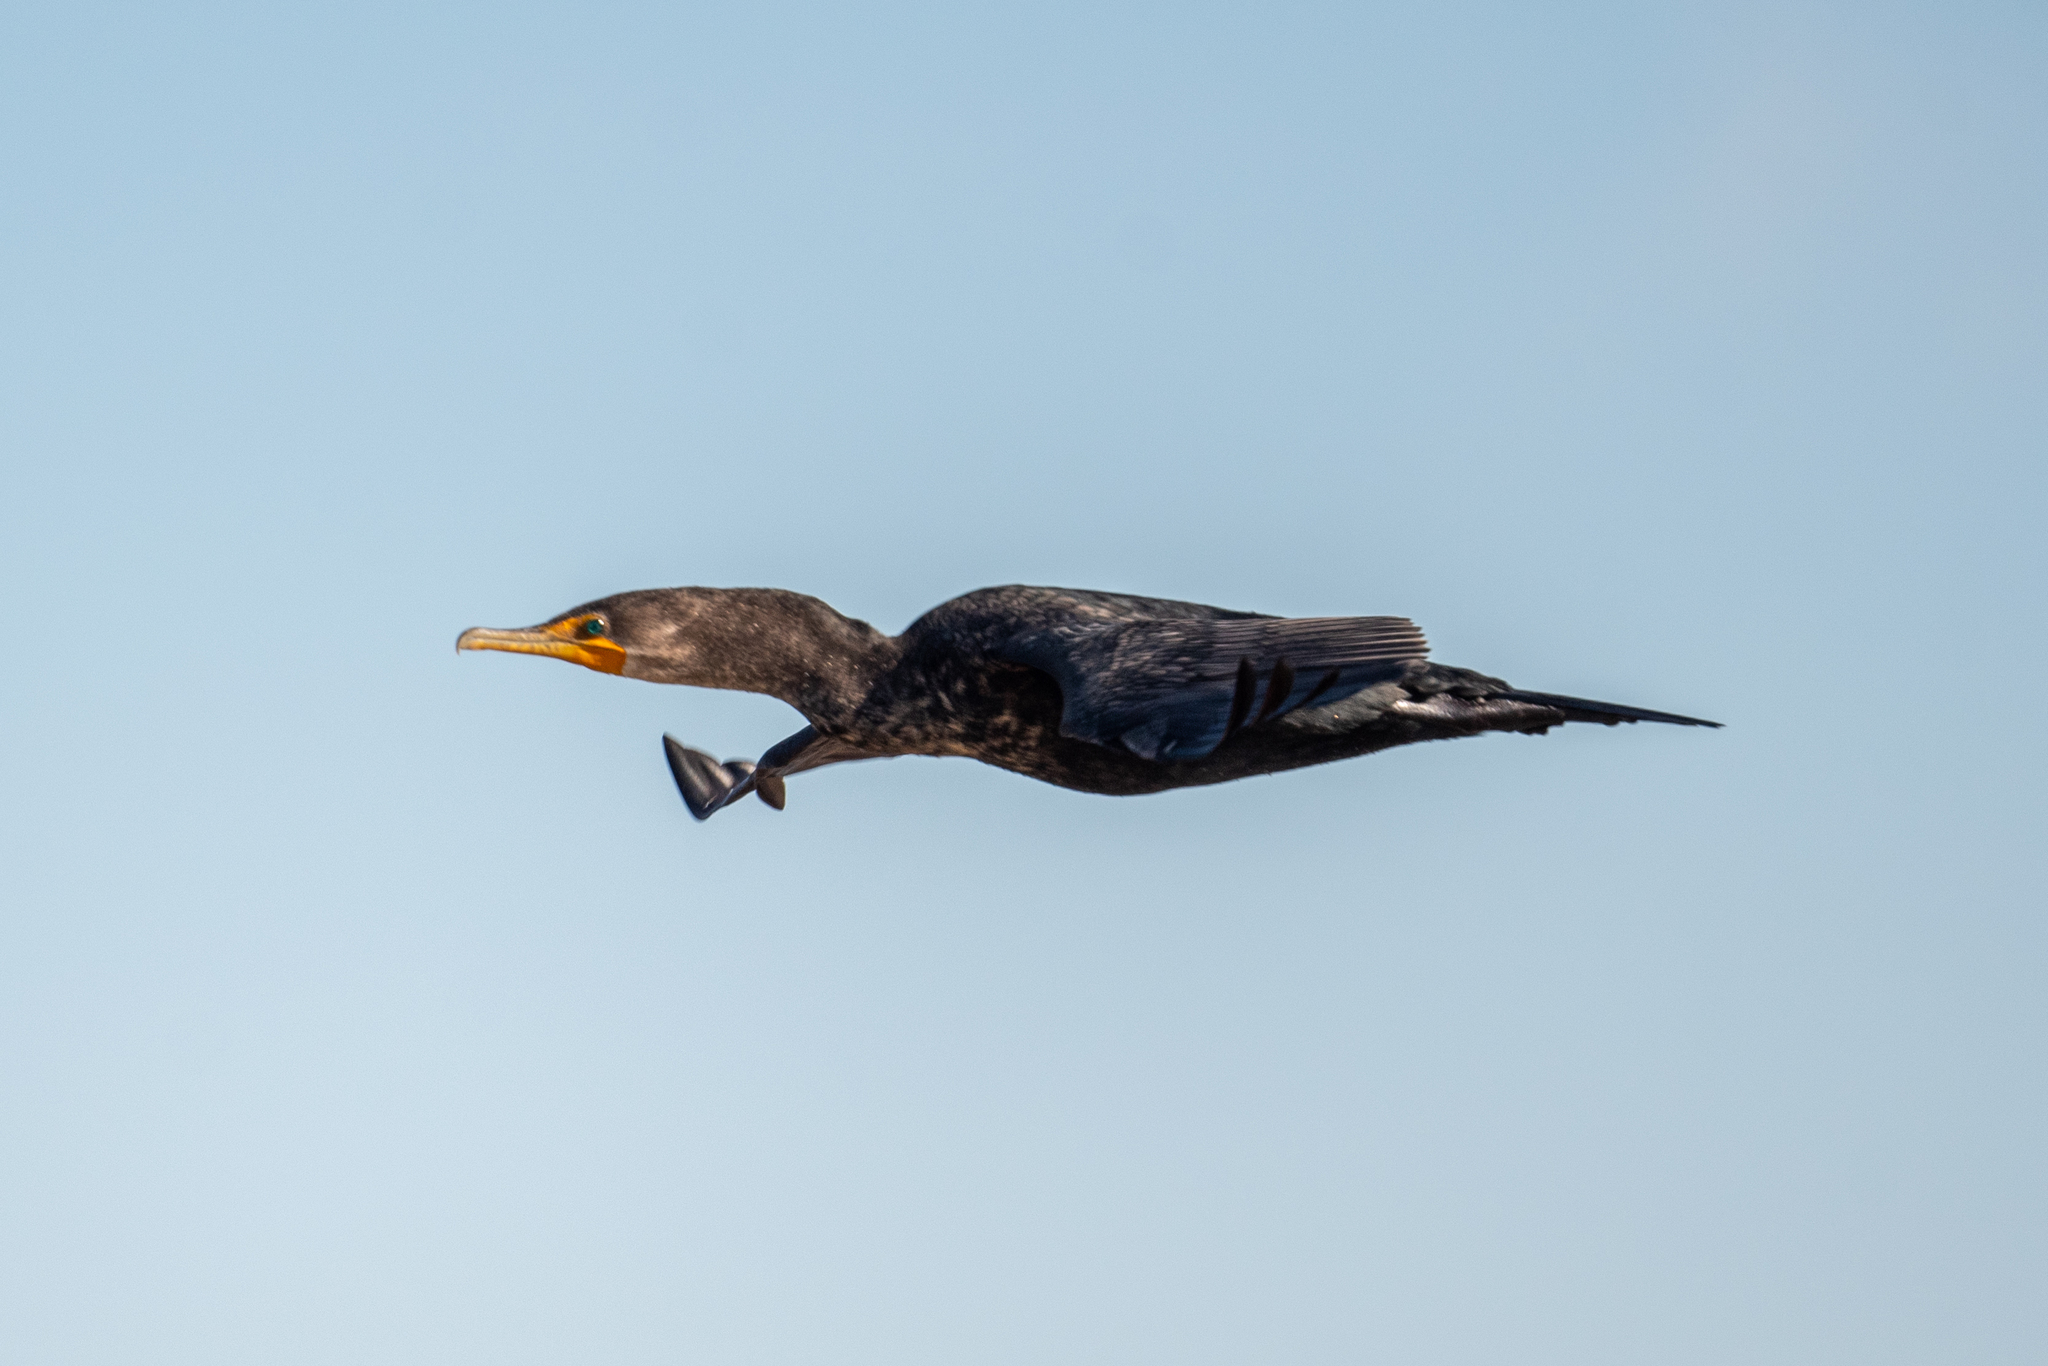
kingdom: Animalia
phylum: Chordata
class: Aves
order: Suliformes
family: Phalacrocoracidae
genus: Phalacrocorax
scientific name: Phalacrocorax auritus
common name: Double-crested cormorant
